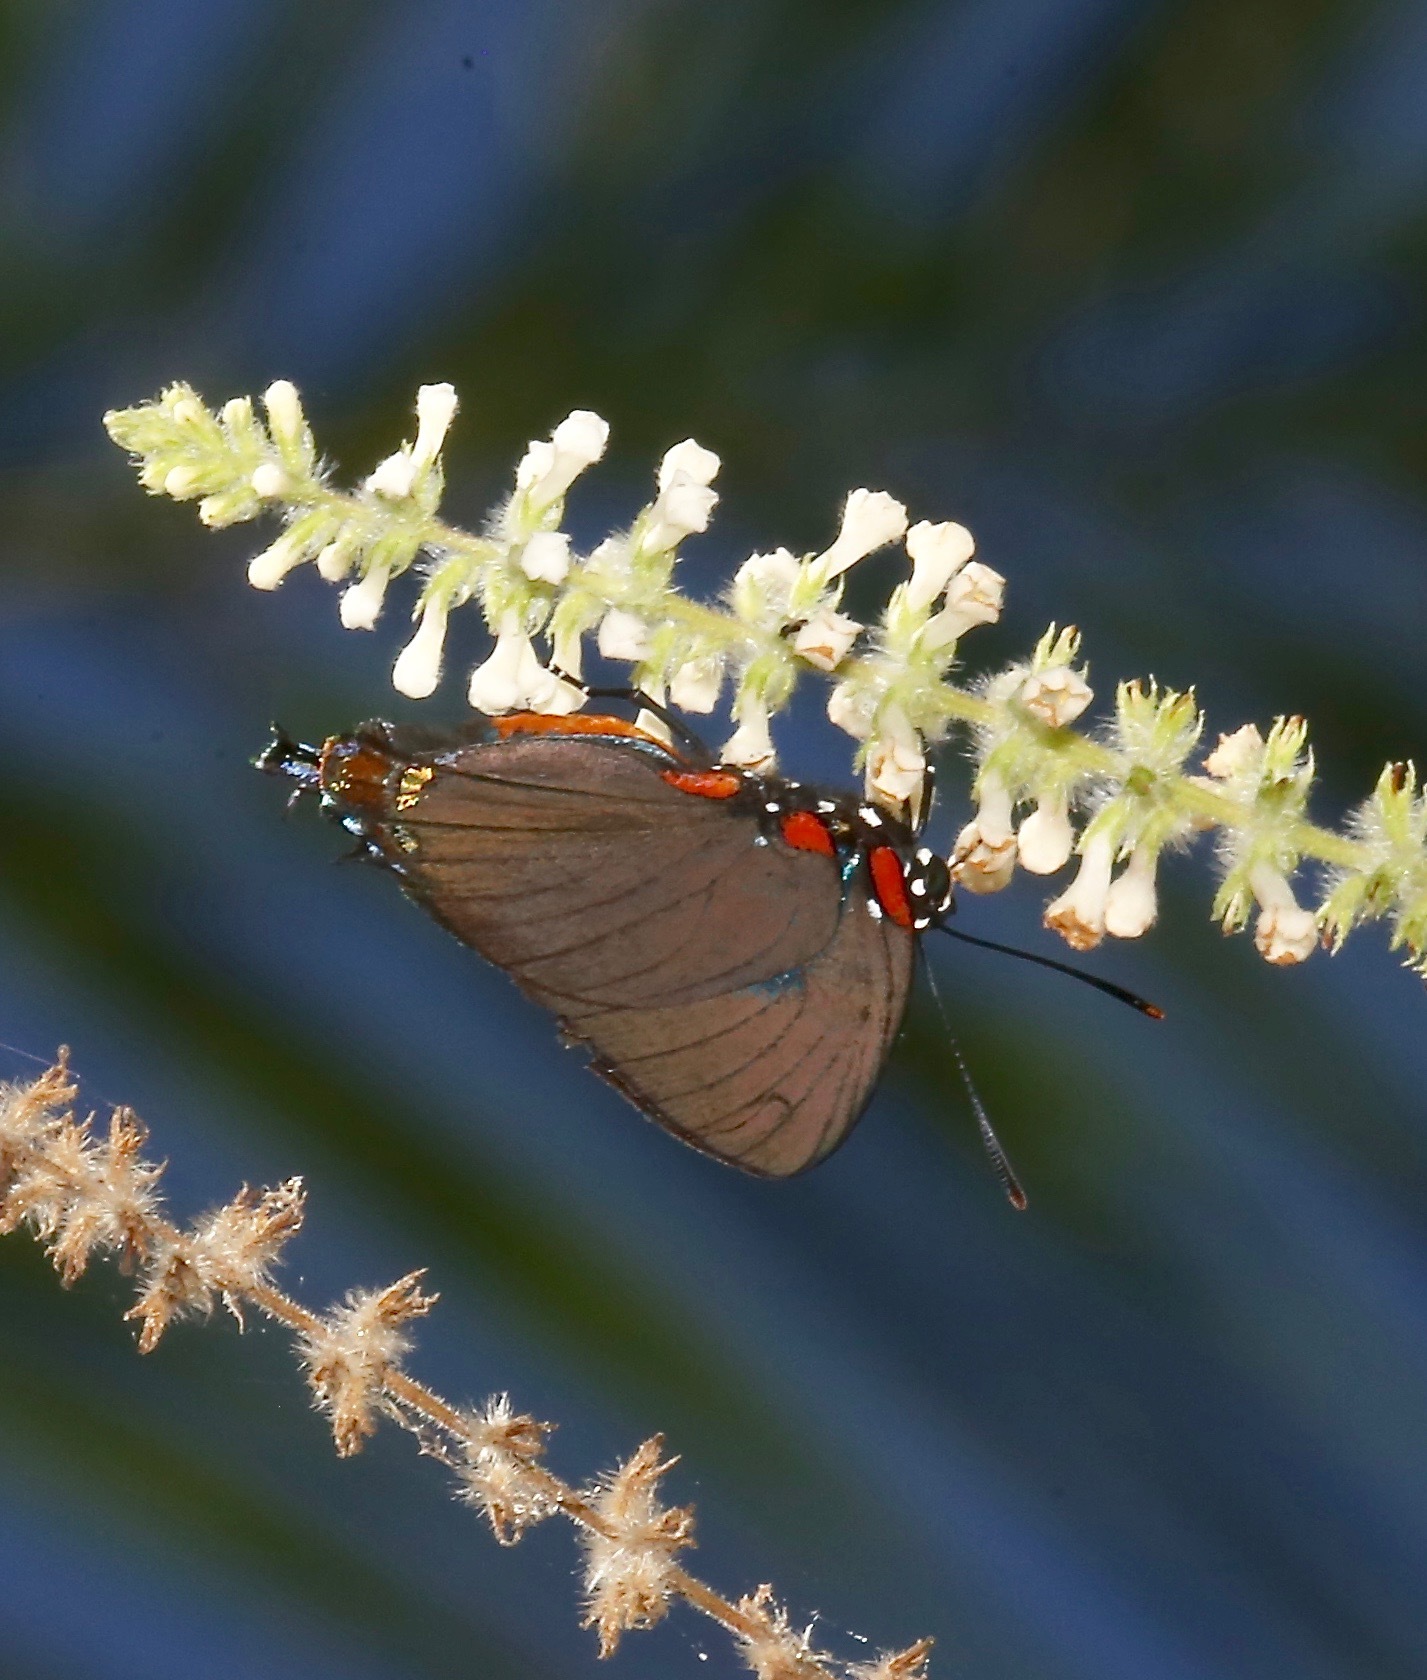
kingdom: Animalia
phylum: Arthropoda
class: Insecta
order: Lepidoptera
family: Lycaenidae
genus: Atlides
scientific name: Atlides halesus
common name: Great purple hairstreak
